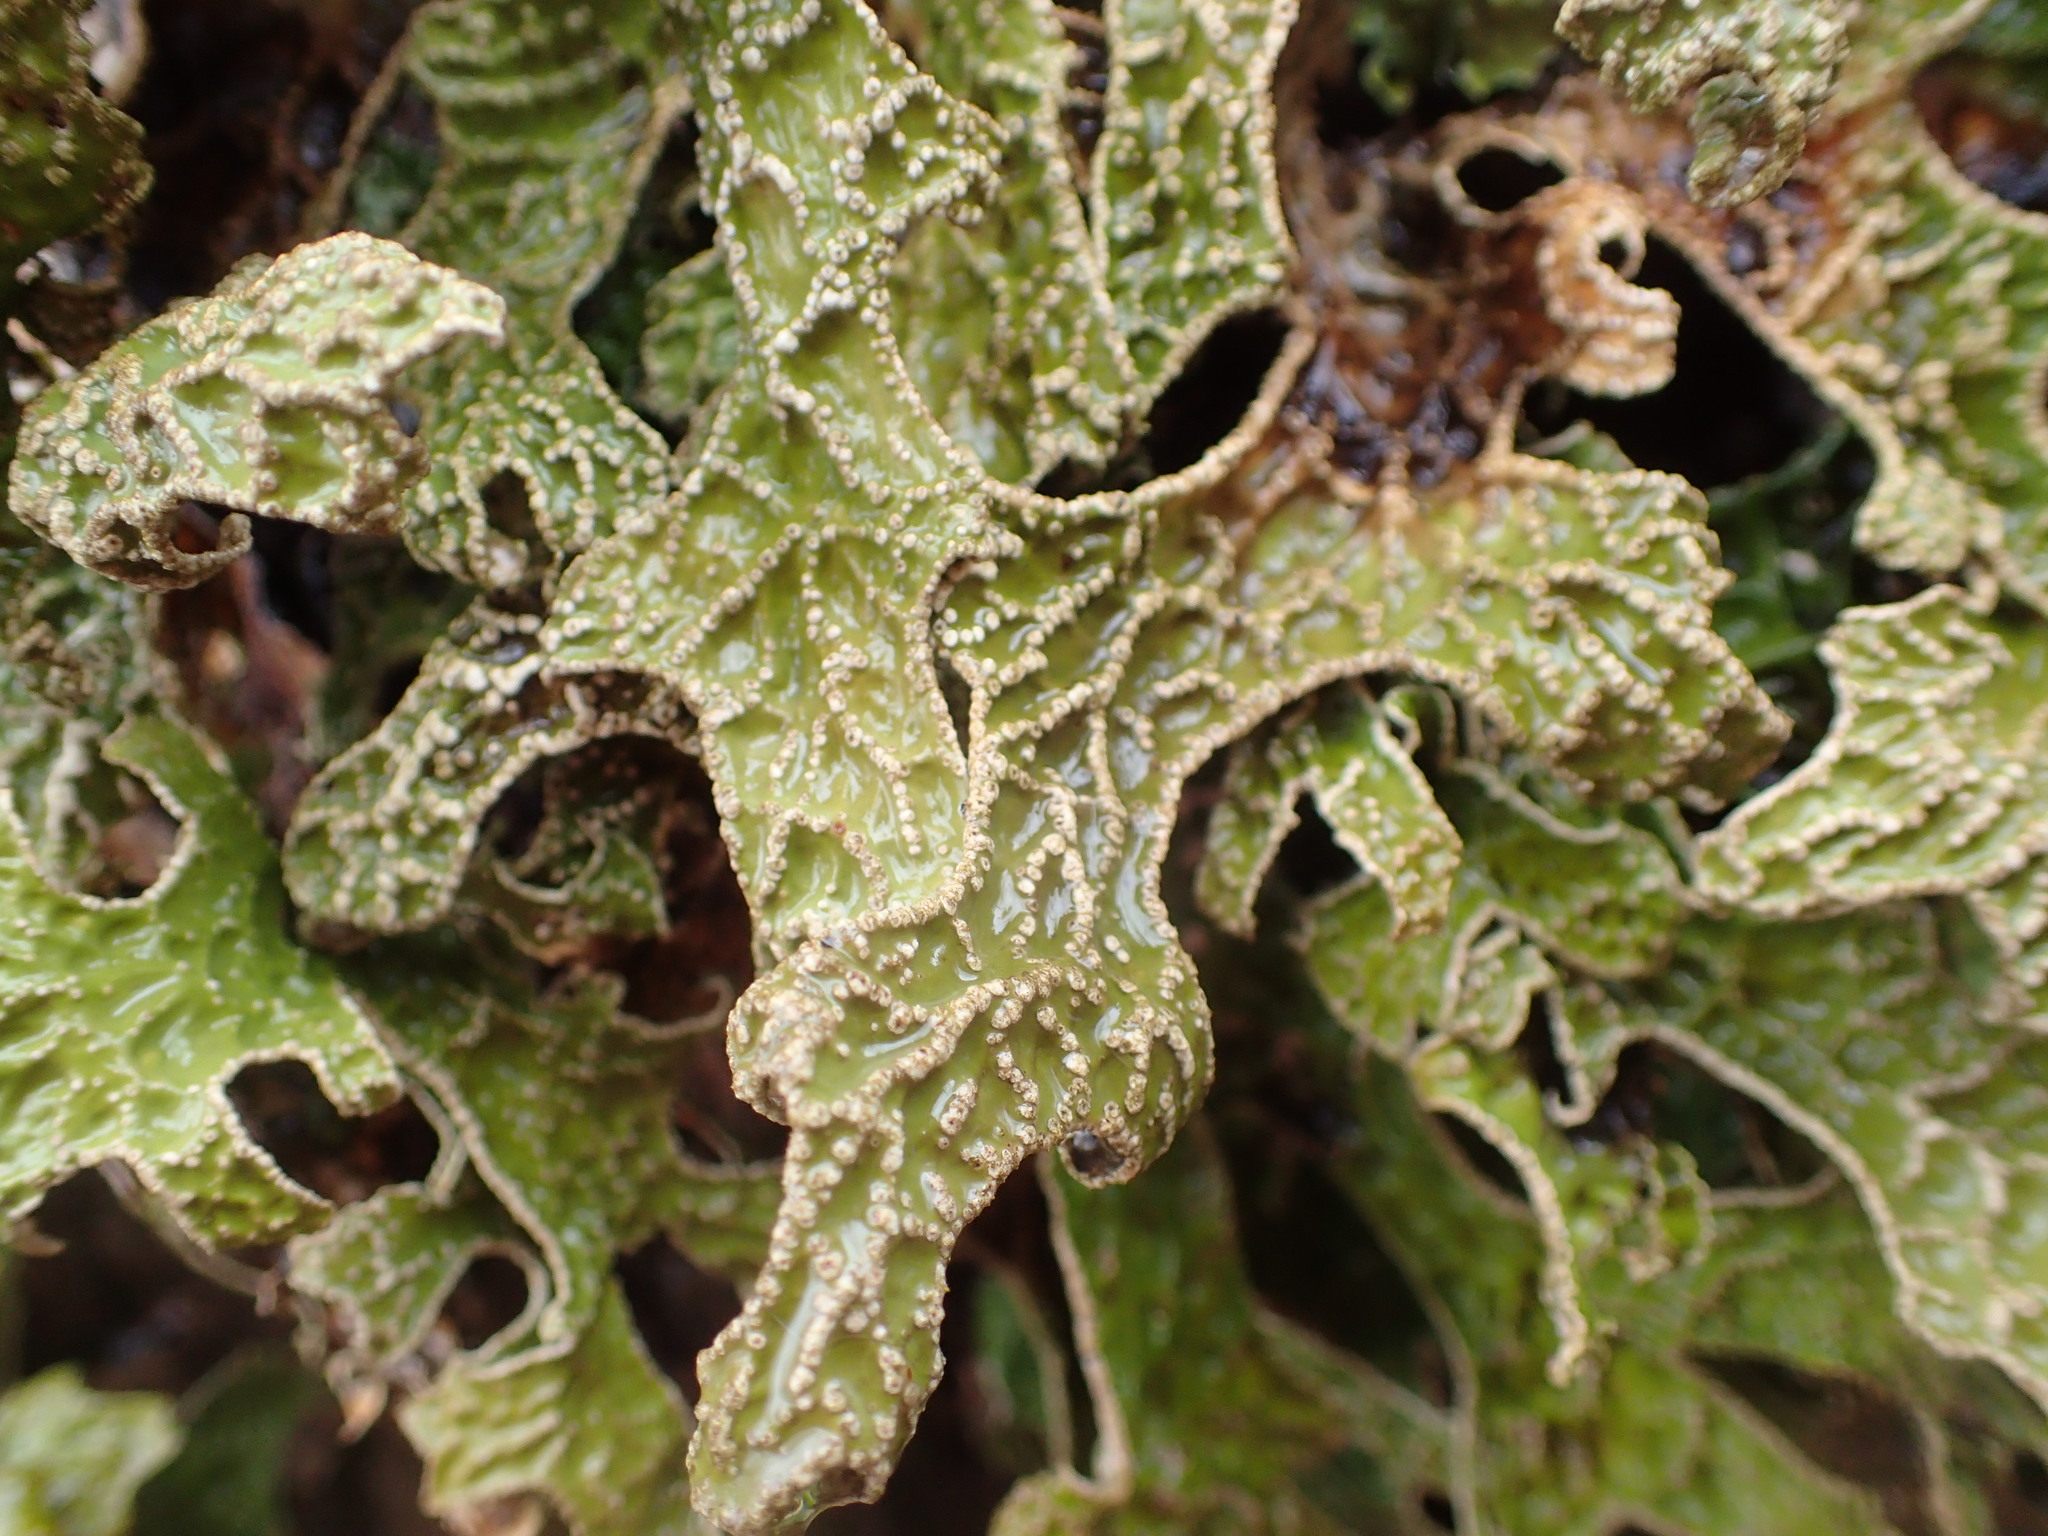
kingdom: Fungi
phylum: Ascomycota
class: Lecanoromycetes
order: Peltigerales
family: Lobariaceae
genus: Lobaria
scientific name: Lobaria pulmonaria
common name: Lungwort
